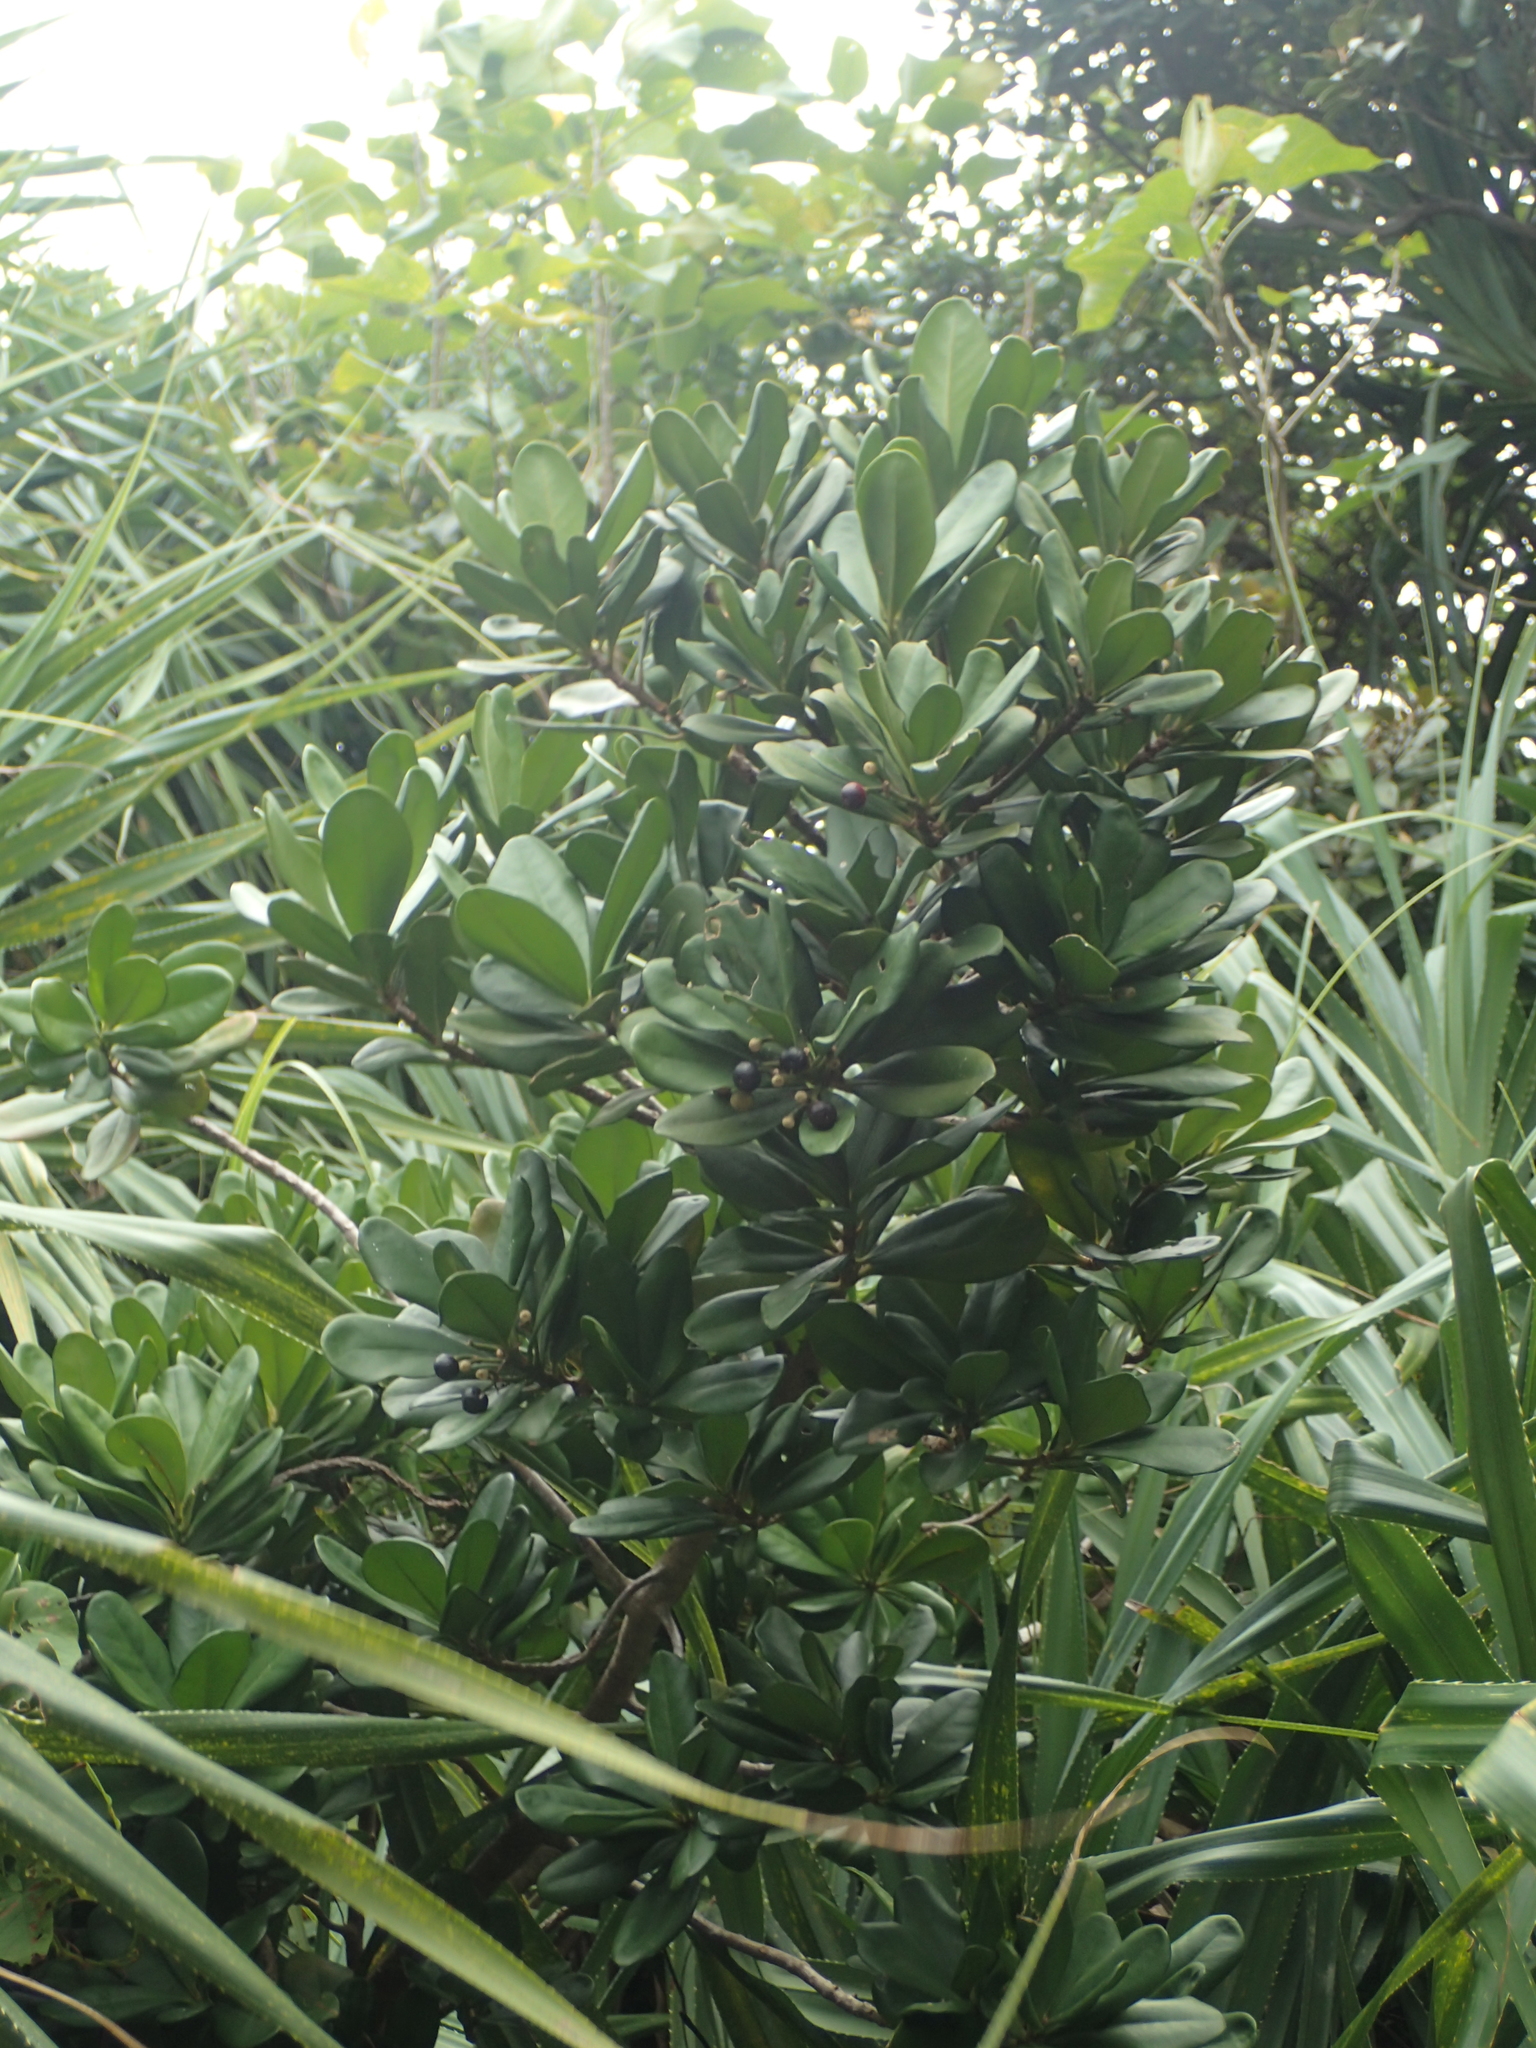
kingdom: Plantae
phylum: Tracheophyta
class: Magnoliopsida
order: Ericales
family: Primulaceae
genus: Ardisia
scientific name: Ardisia elliptica
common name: Shoebutton
